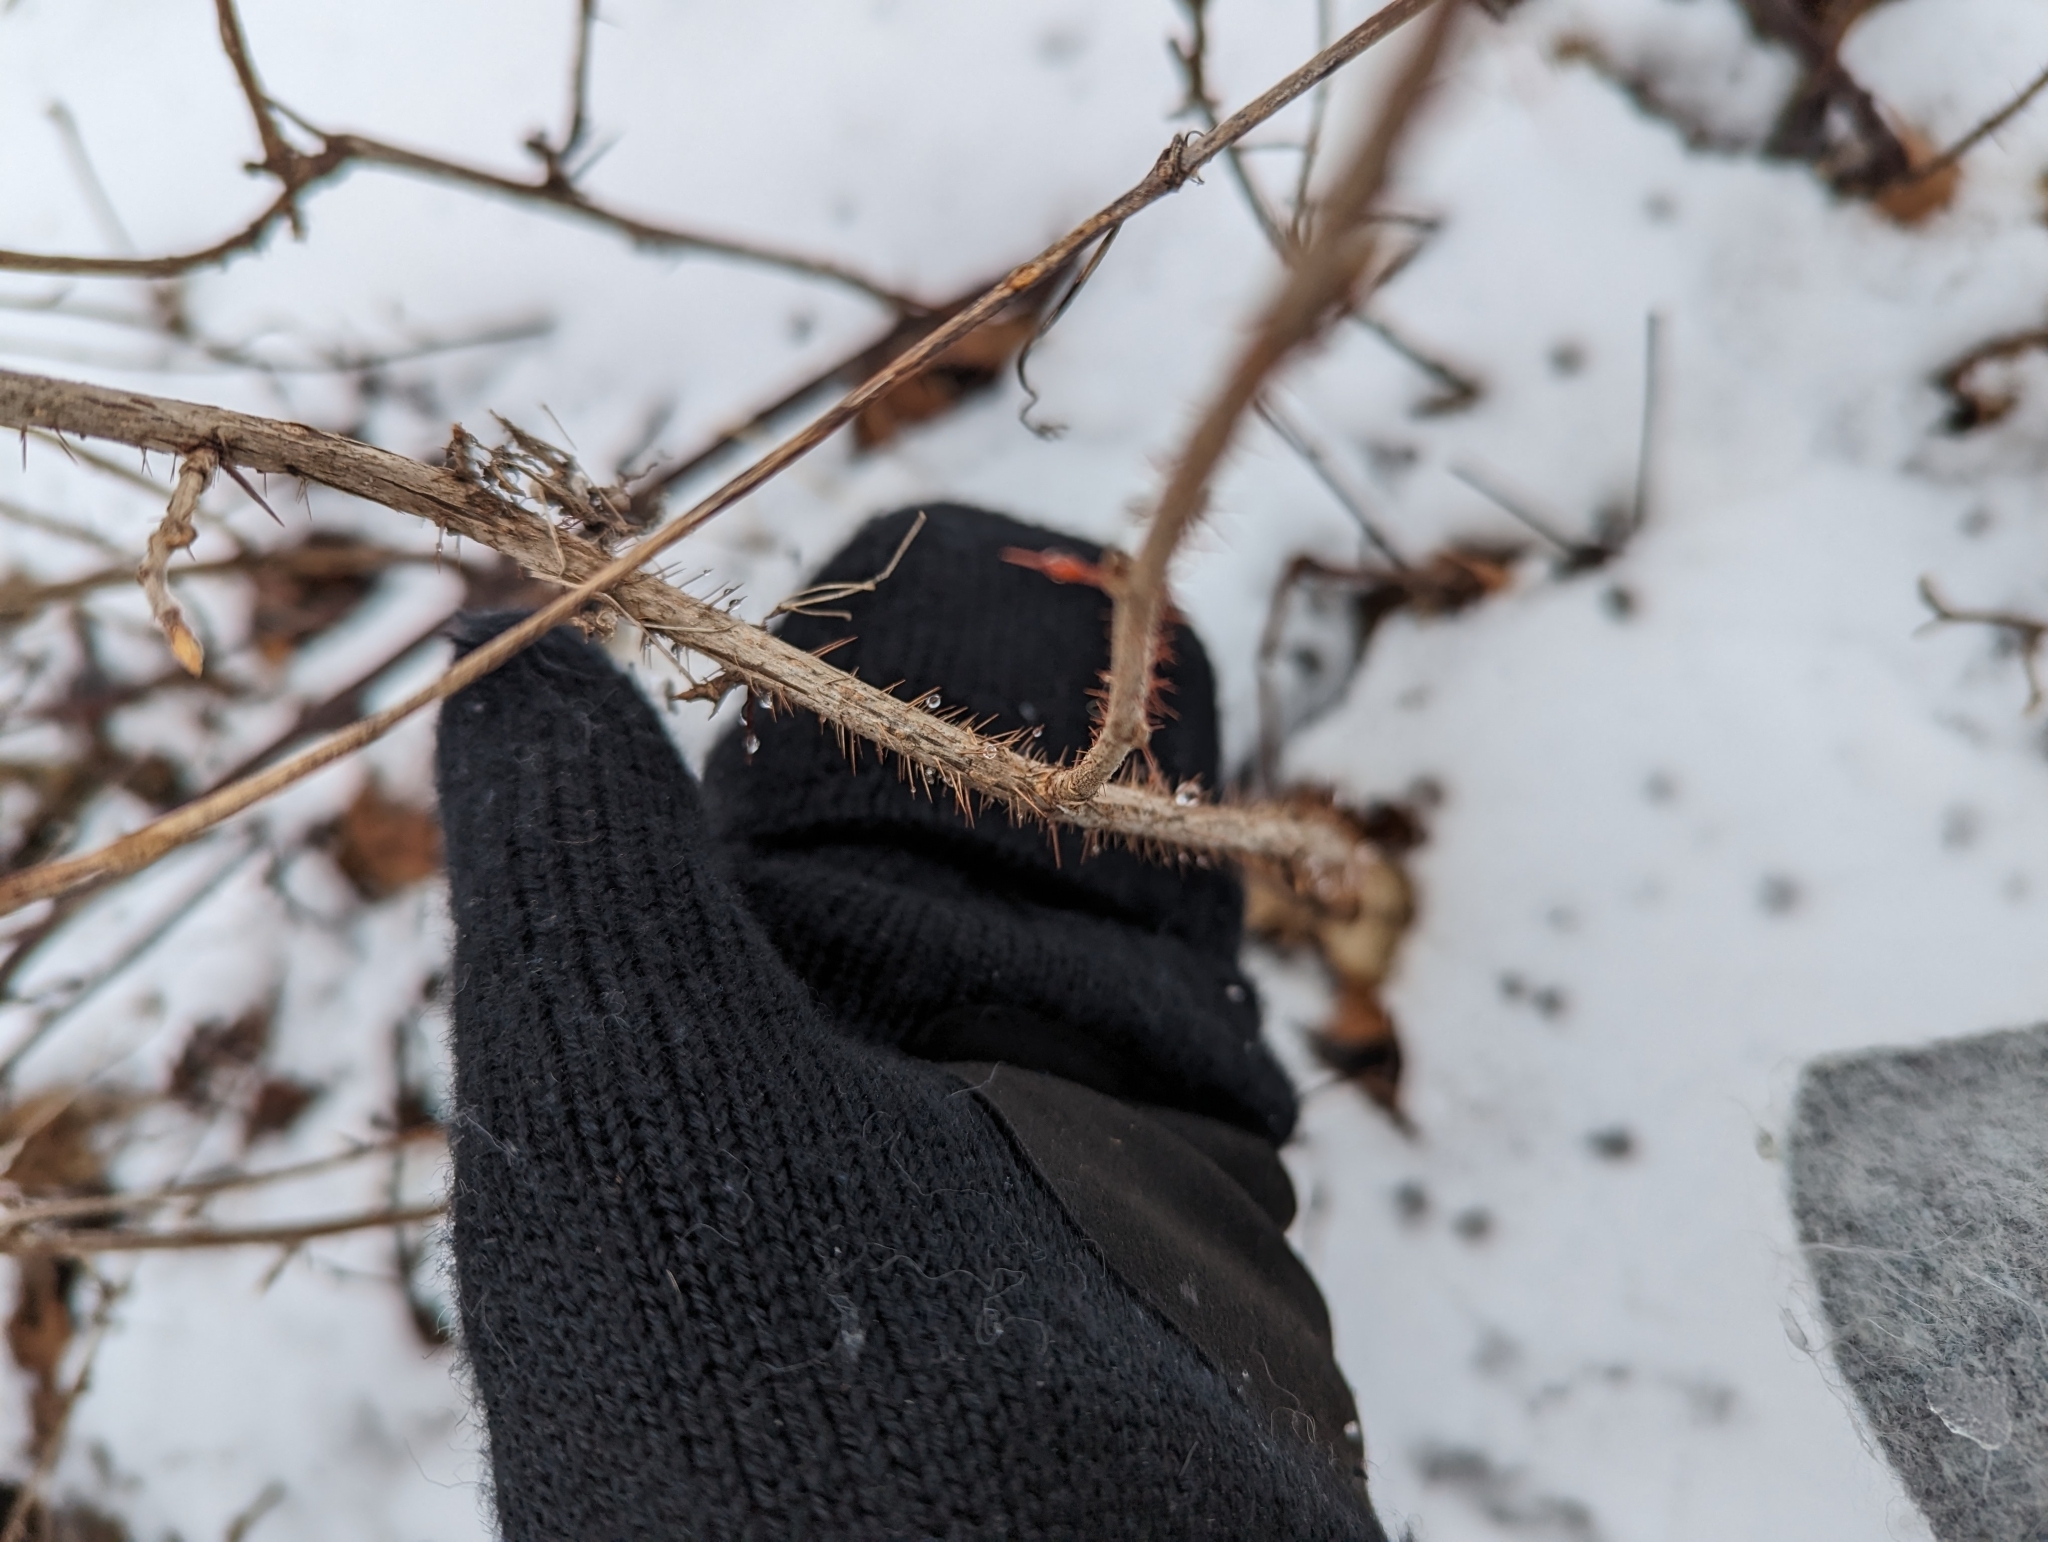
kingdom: Plantae
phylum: Tracheophyta
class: Magnoliopsida
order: Saxifragales
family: Grossulariaceae
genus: Ribes
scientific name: Ribes cynosbati
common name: American gooseberry
